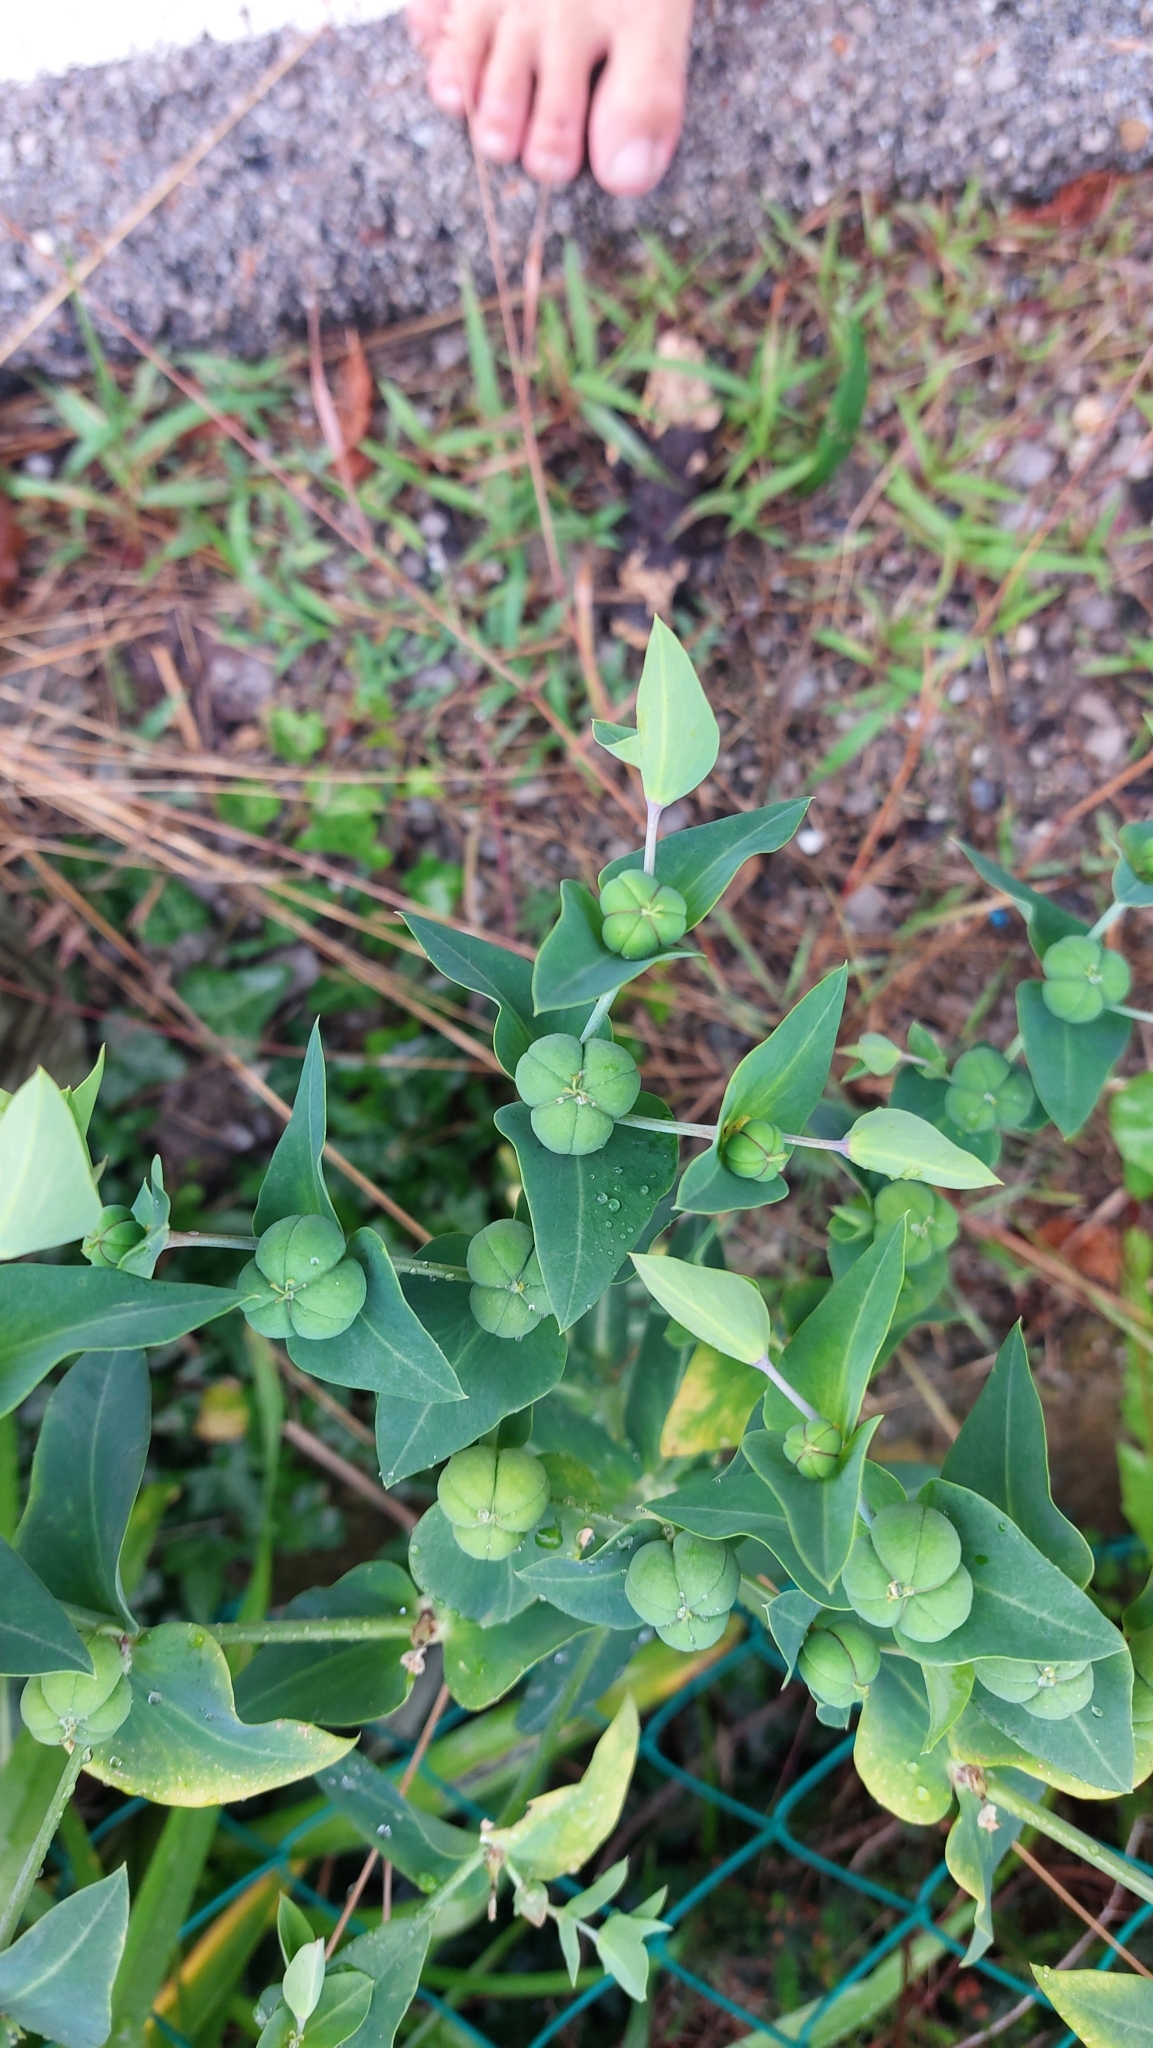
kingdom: Plantae
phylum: Tracheophyta
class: Magnoliopsida
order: Malpighiales
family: Euphorbiaceae
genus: Euphorbia
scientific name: Euphorbia lathyris
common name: Caper spurge
